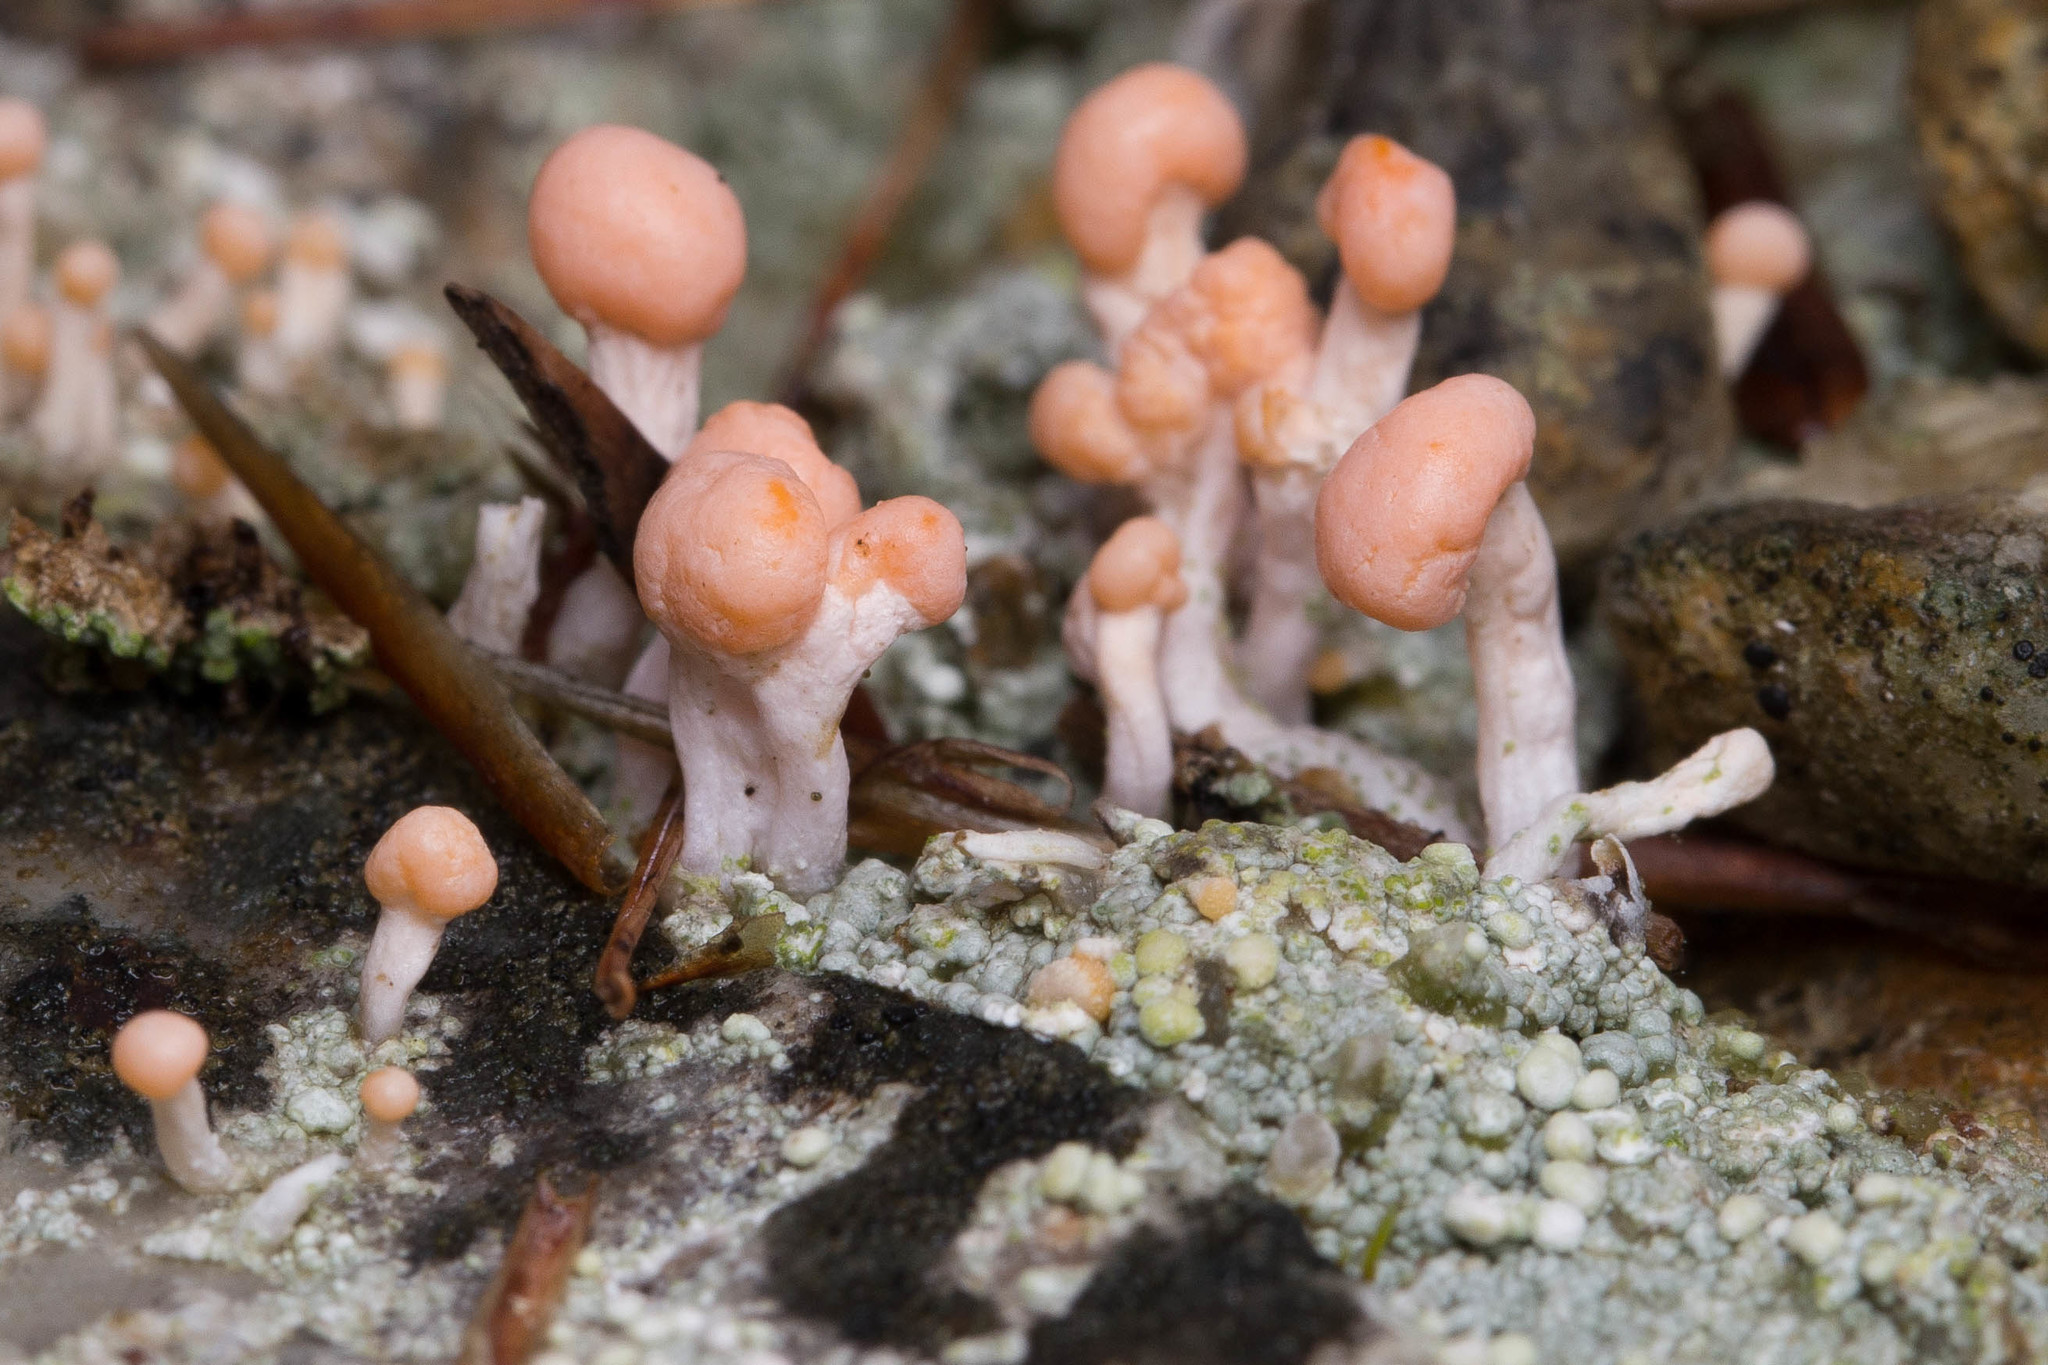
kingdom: Fungi
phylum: Ascomycota
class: Lecanoromycetes
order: Pertusariales
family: Icmadophilaceae
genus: Dibaeis
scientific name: Dibaeis baeomyces
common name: Pink earth lichen
